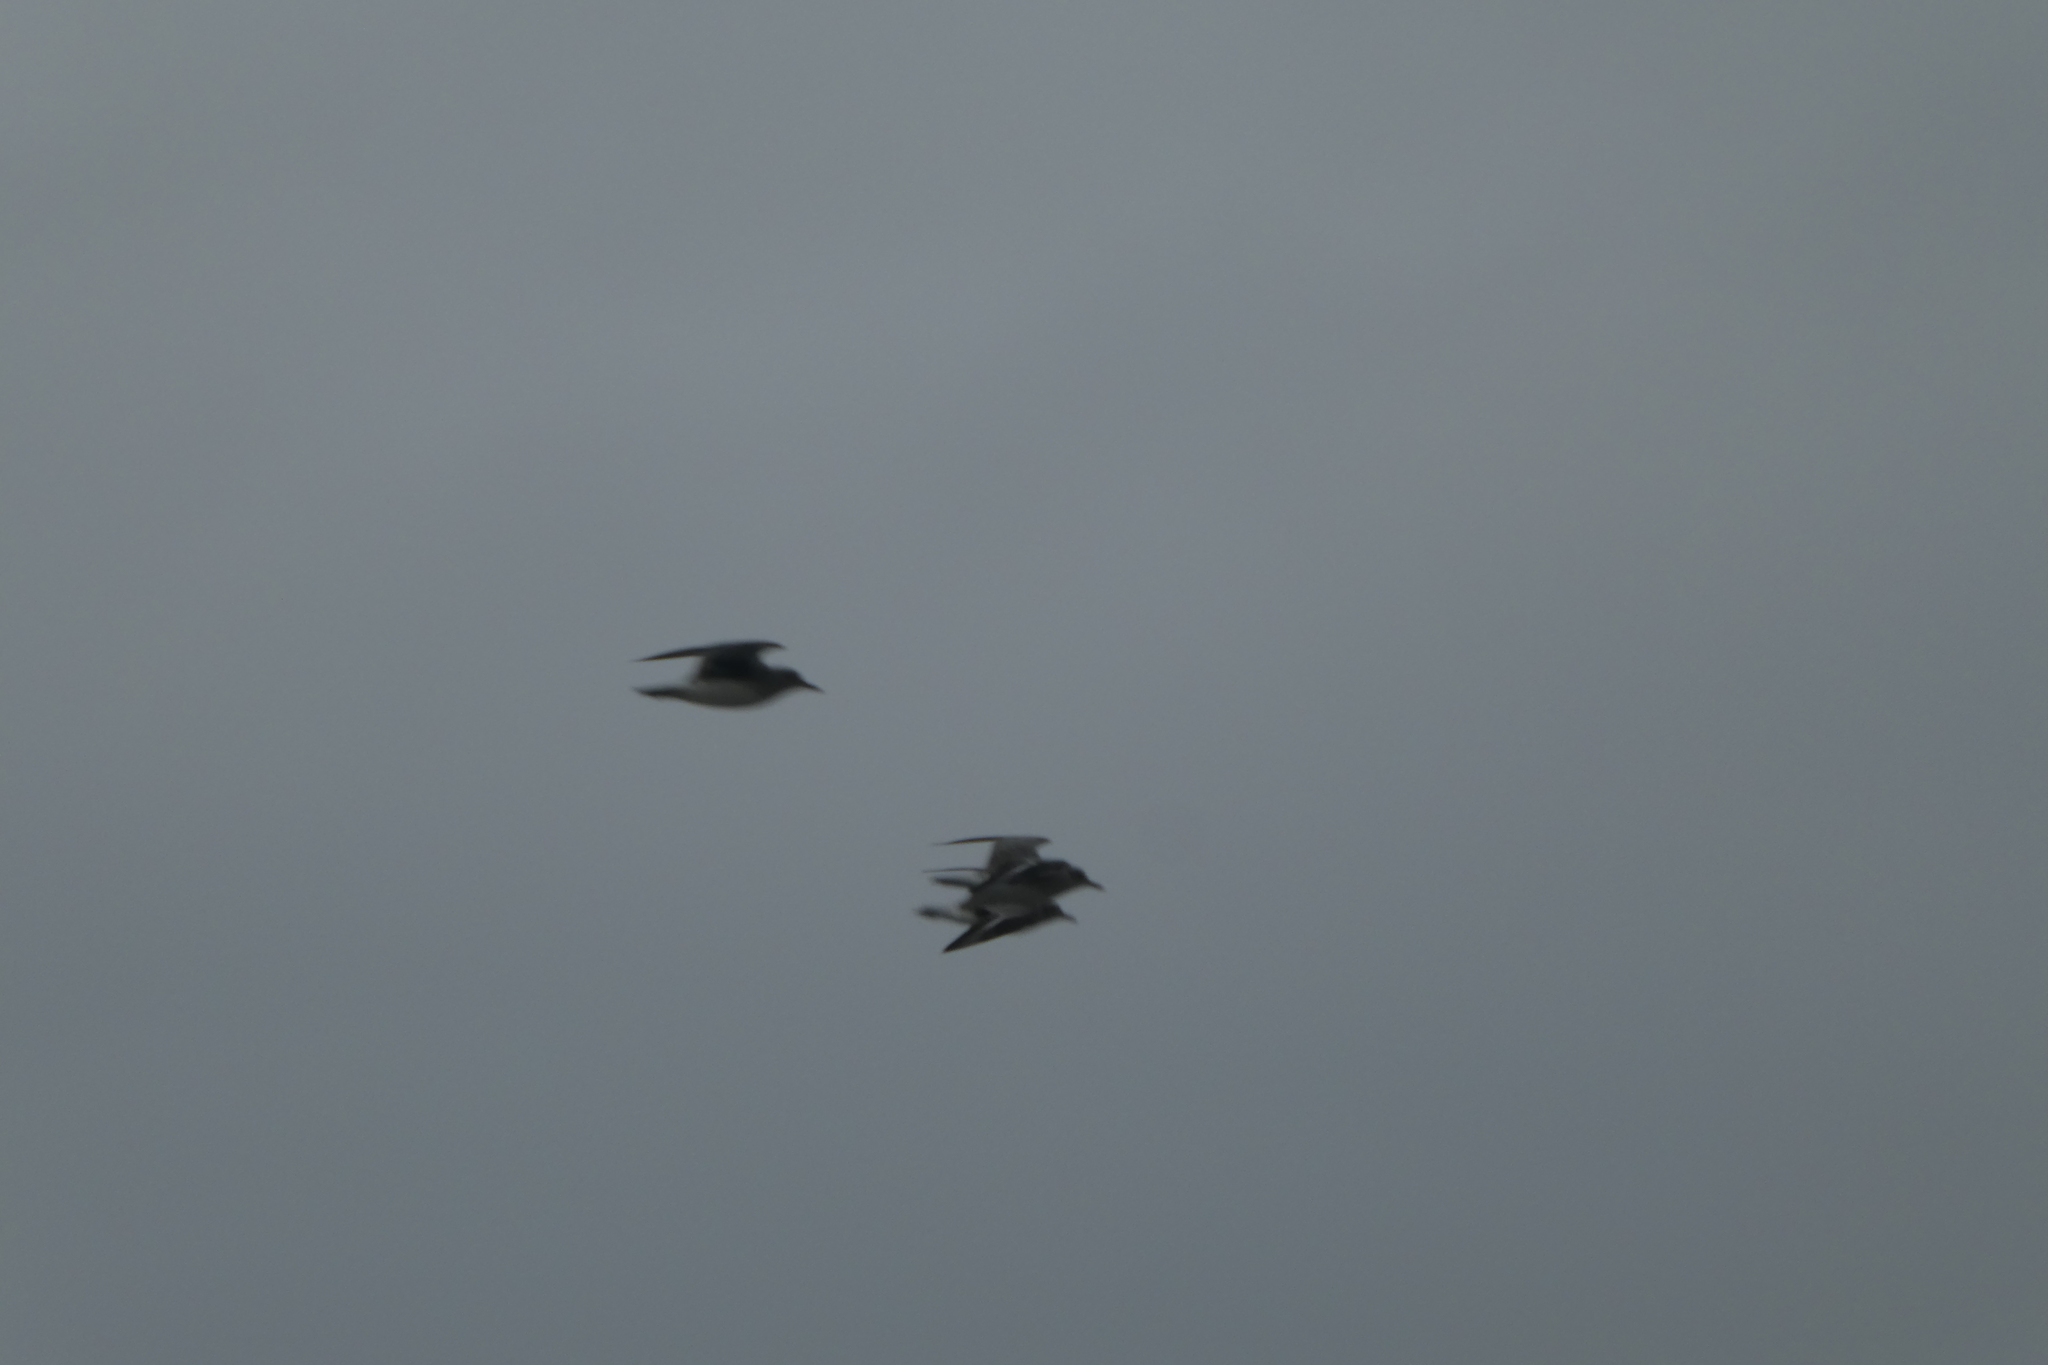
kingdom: Animalia
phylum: Chordata
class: Aves
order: Charadriiformes
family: Charadriidae
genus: Pluvialis
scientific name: Pluvialis squatarola
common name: Grey plover
